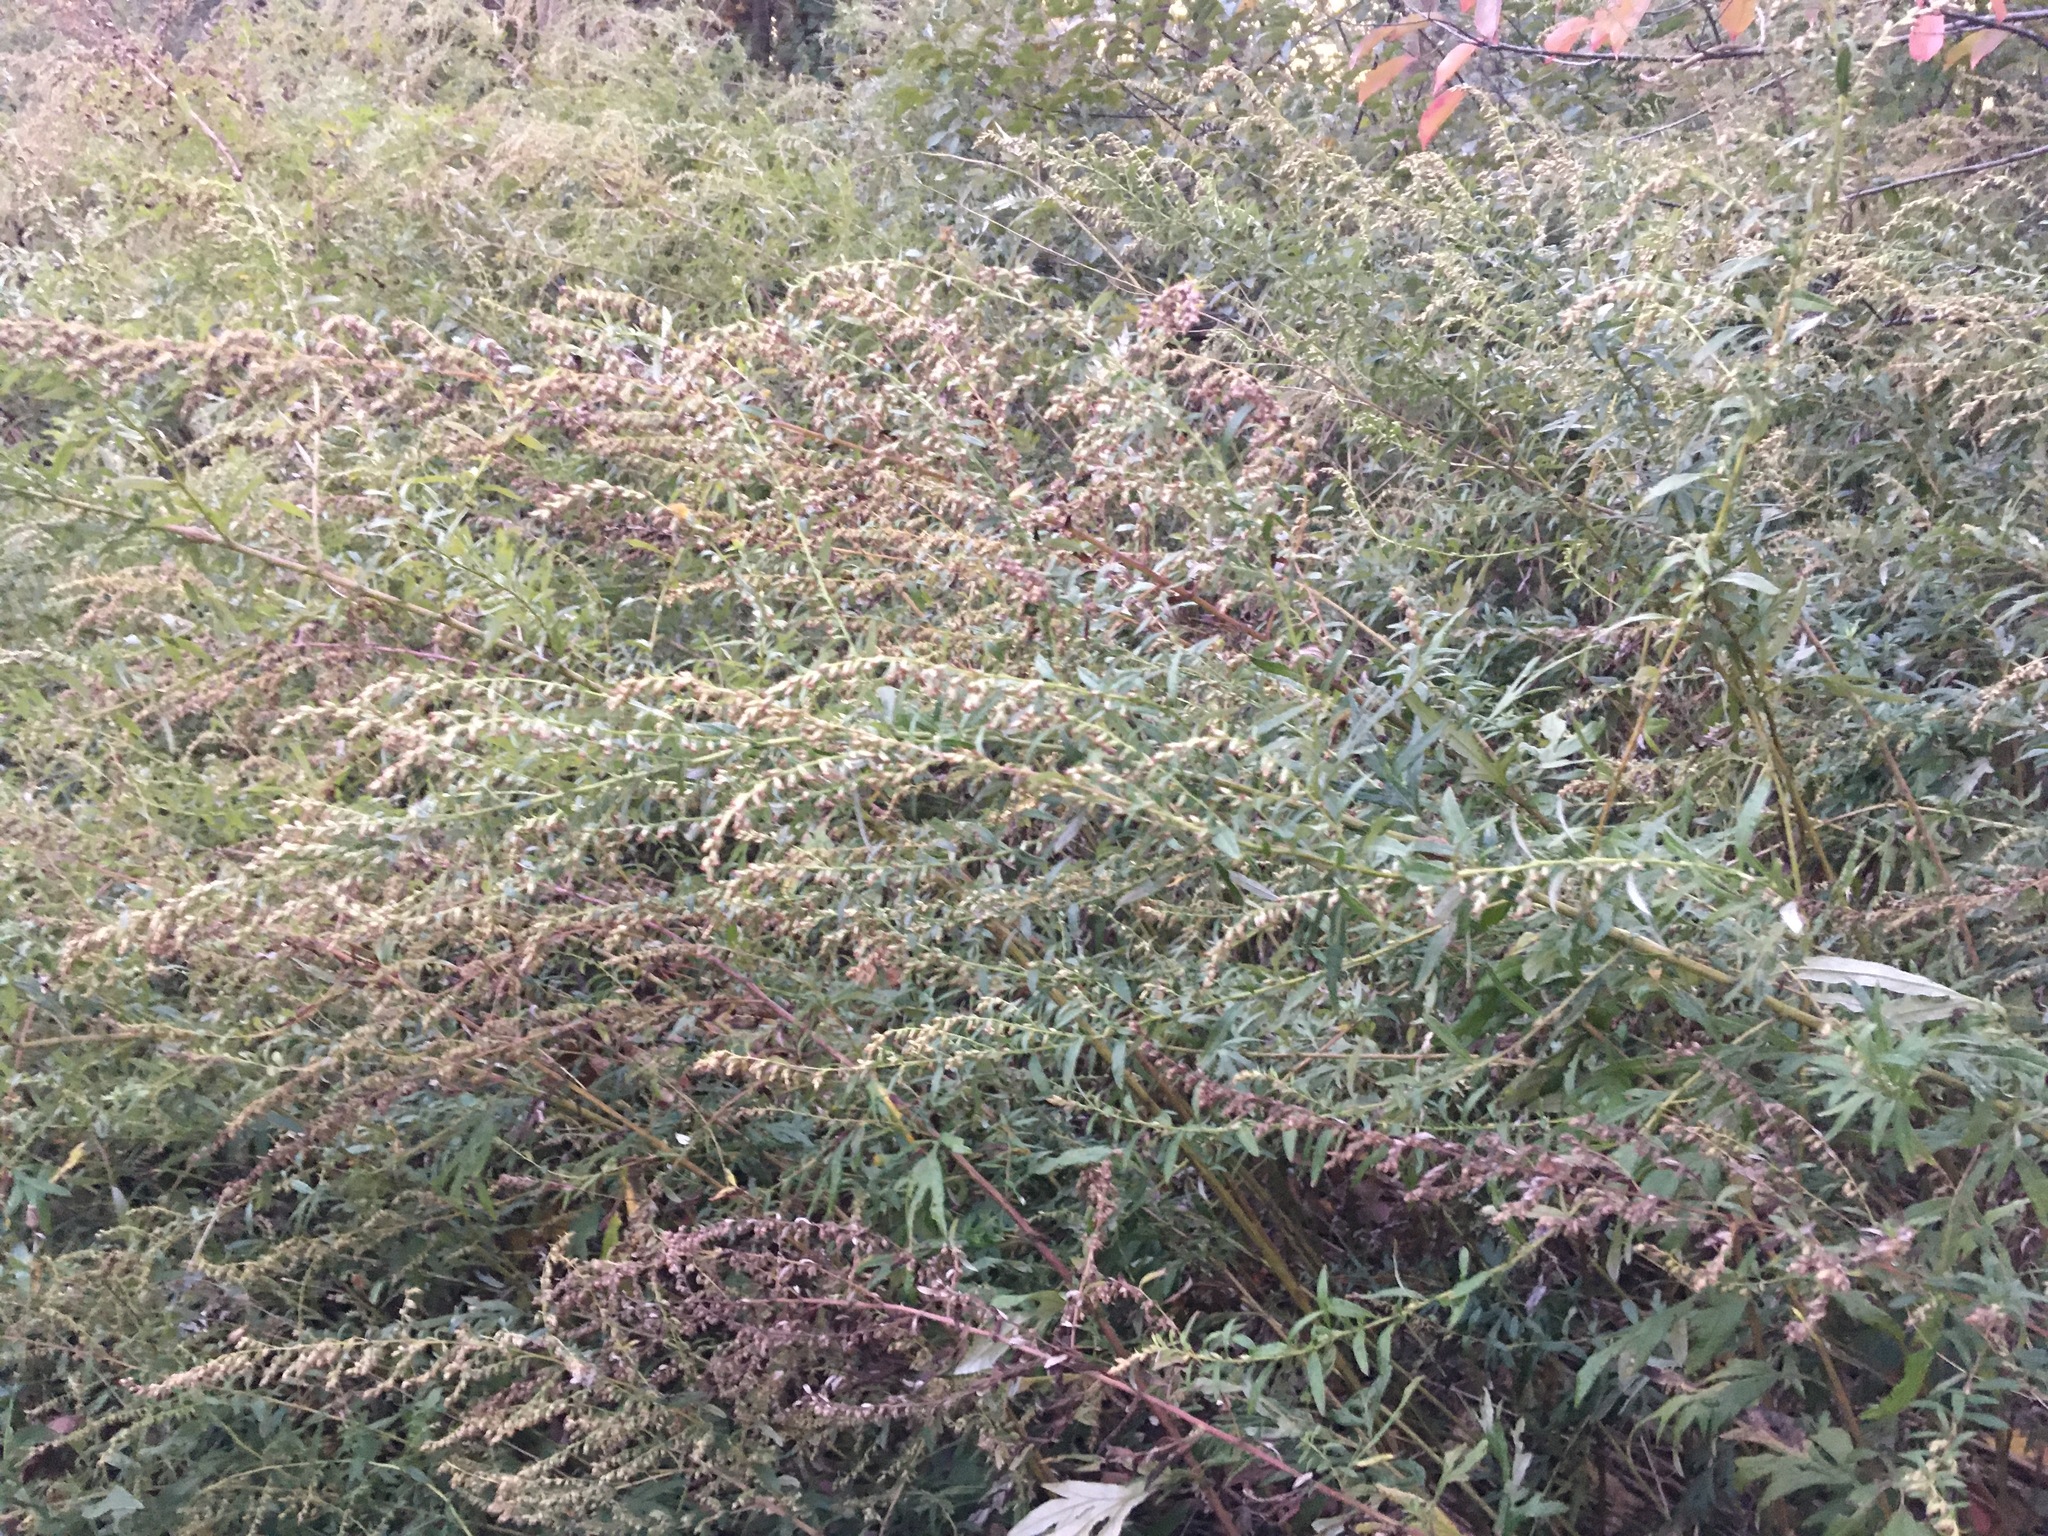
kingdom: Plantae
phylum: Tracheophyta
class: Magnoliopsida
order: Asterales
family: Asteraceae
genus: Artemisia
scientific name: Artemisia vulgaris
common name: Mugwort
